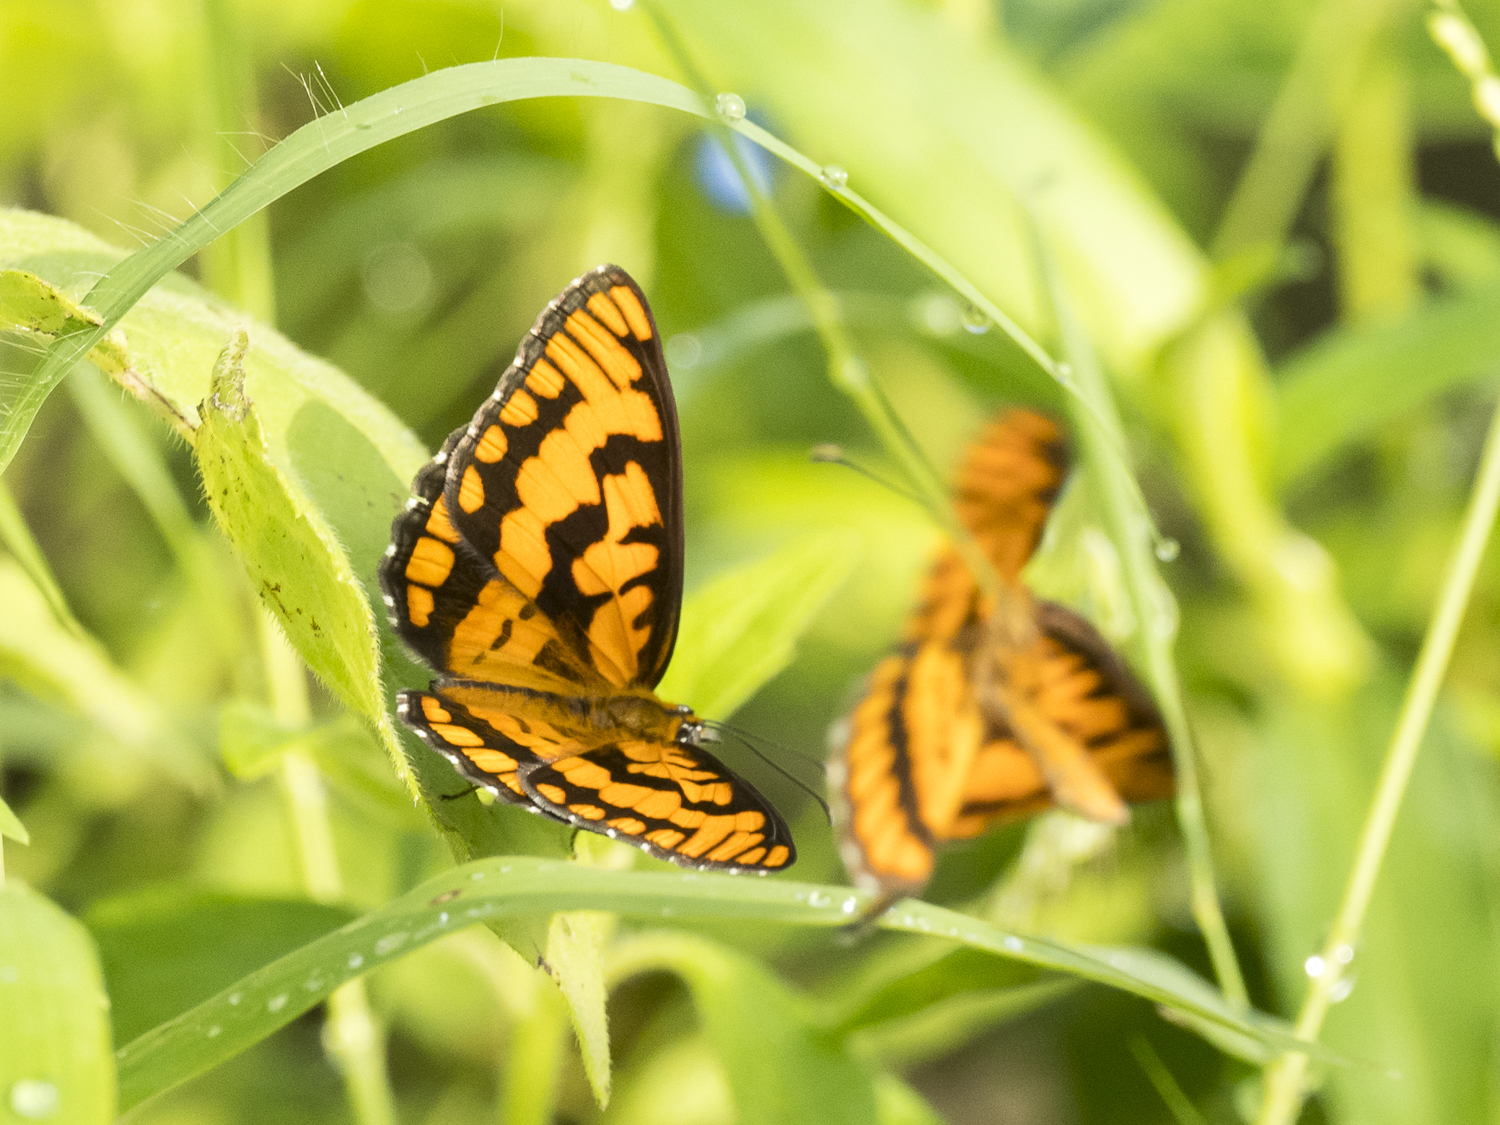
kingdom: Animalia
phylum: Arthropoda
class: Insecta
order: Lepidoptera
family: Nymphalidae
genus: Byblia
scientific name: Byblia ilithyia
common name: Spotted joker
